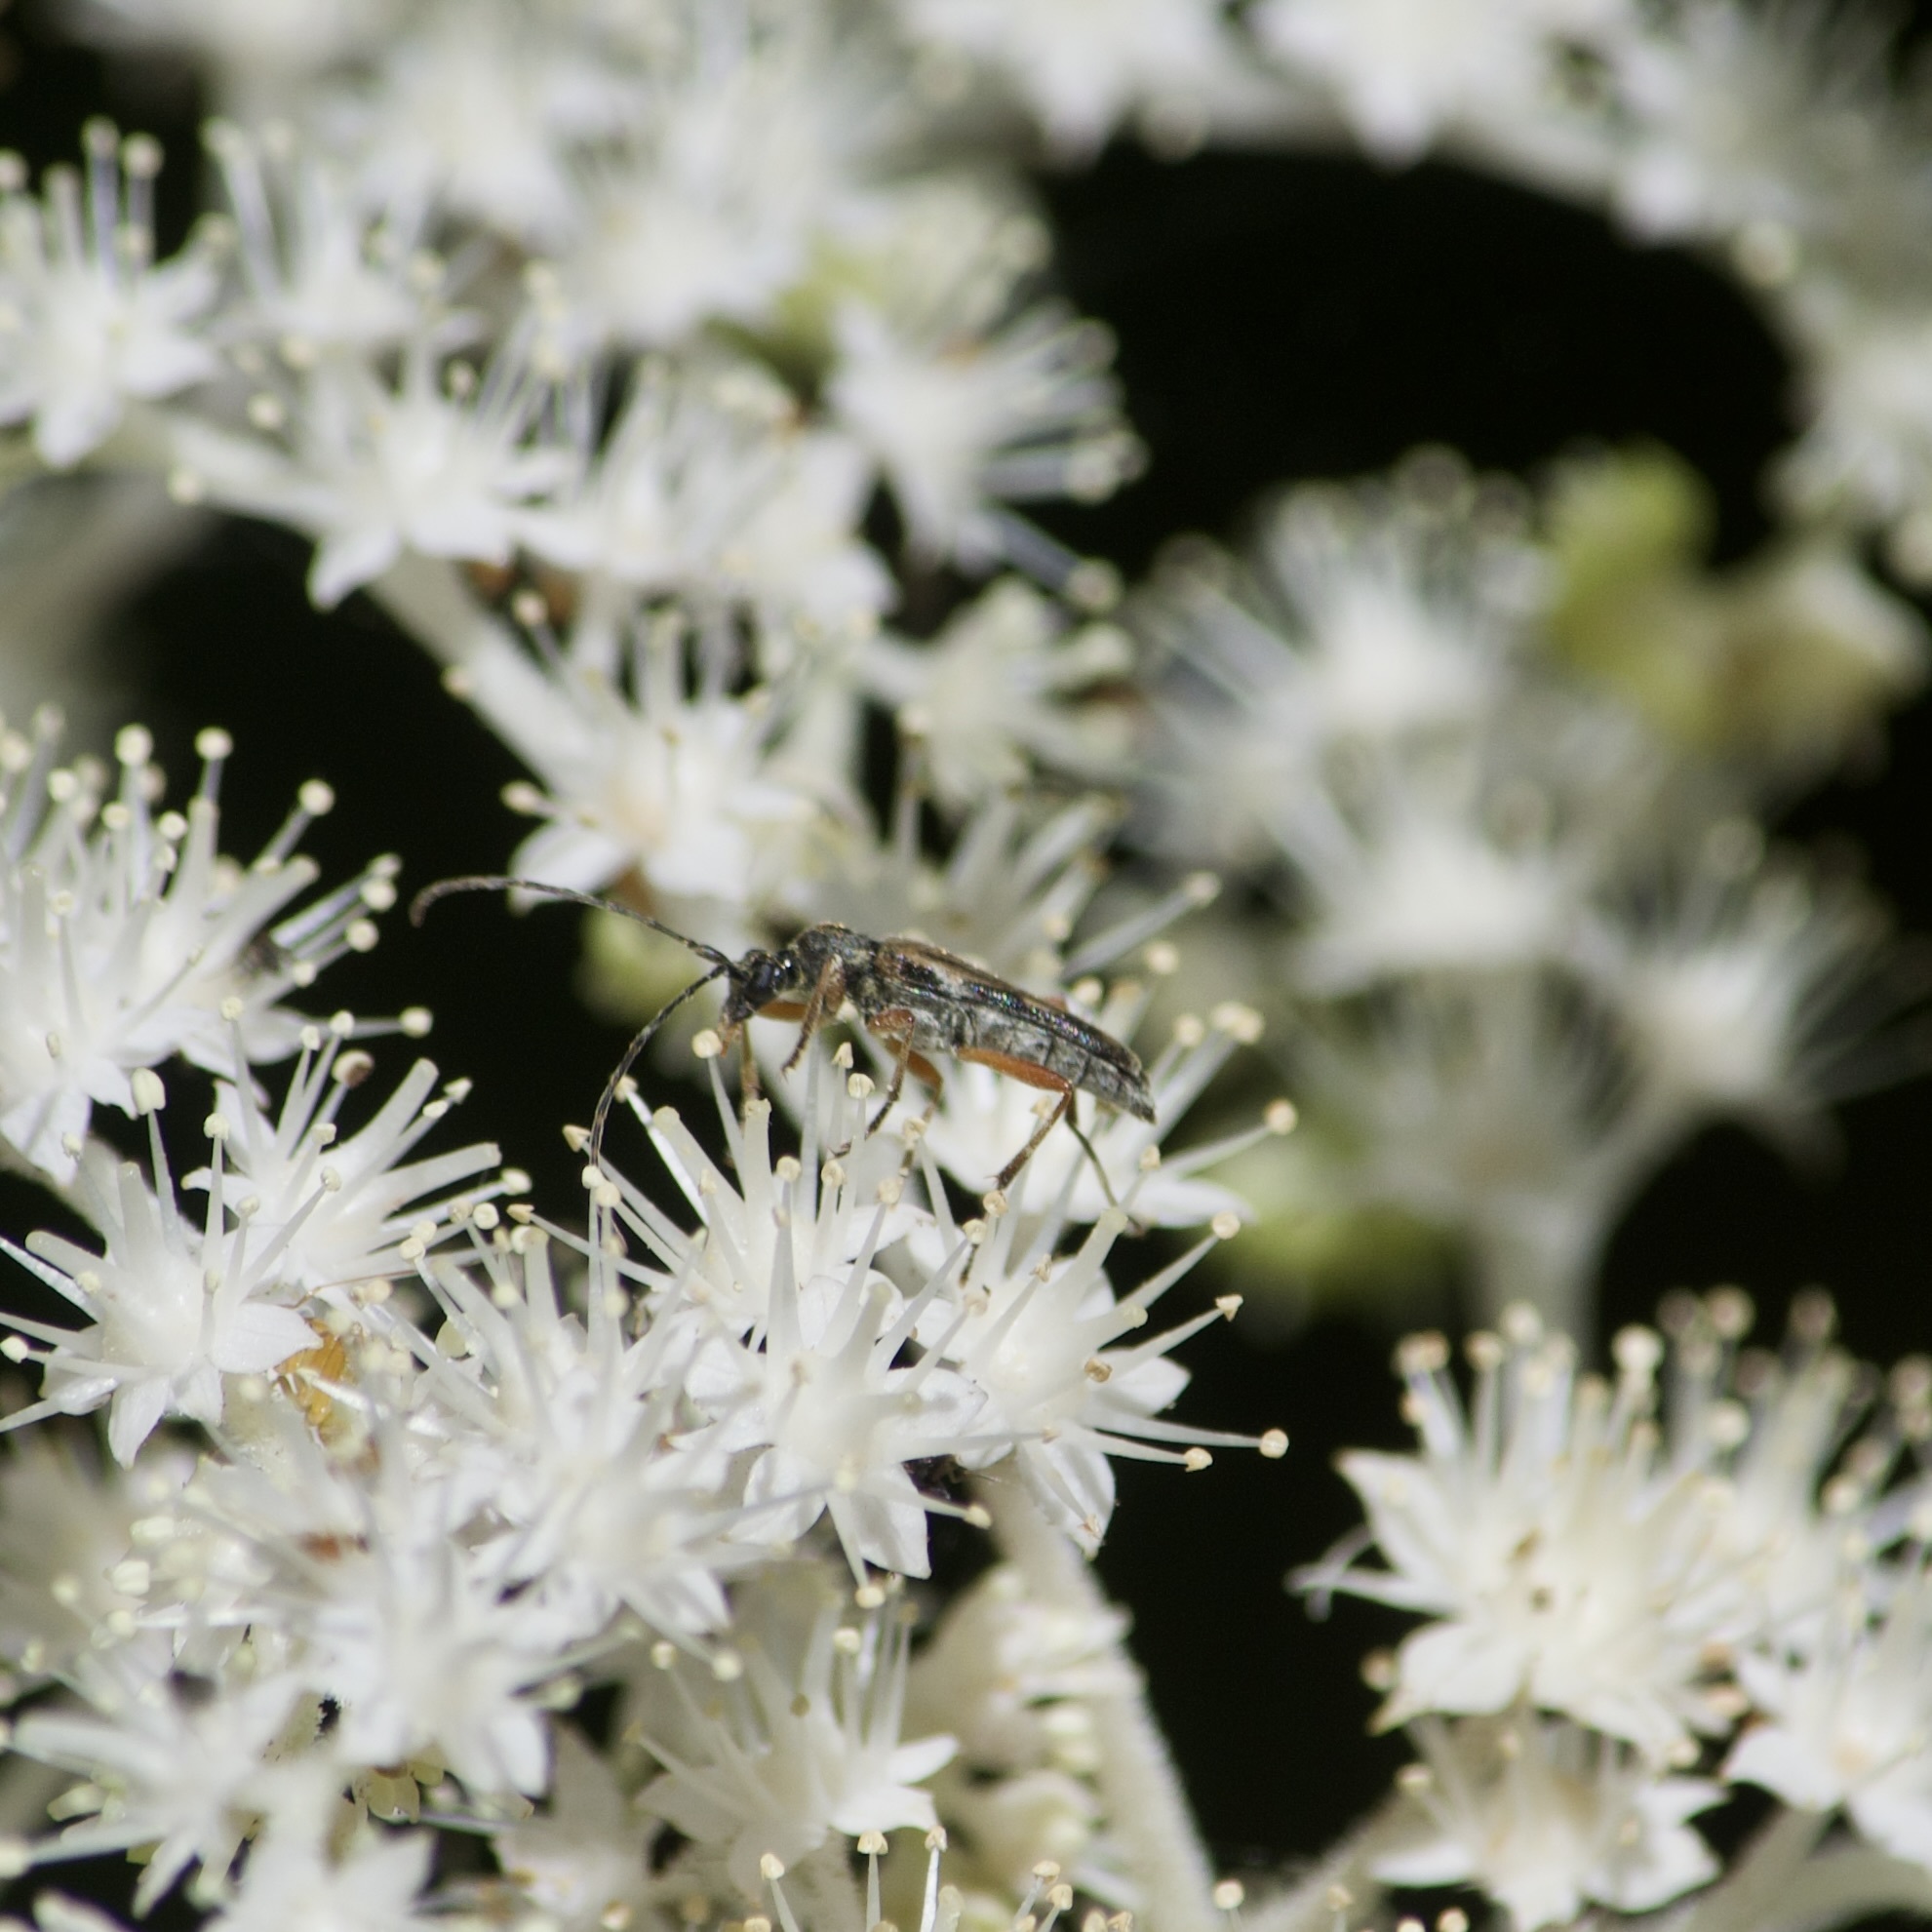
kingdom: Animalia
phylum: Arthropoda
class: Insecta
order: Coleoptera
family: Cerambycidae
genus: Analeptura
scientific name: Analeptura lineola
